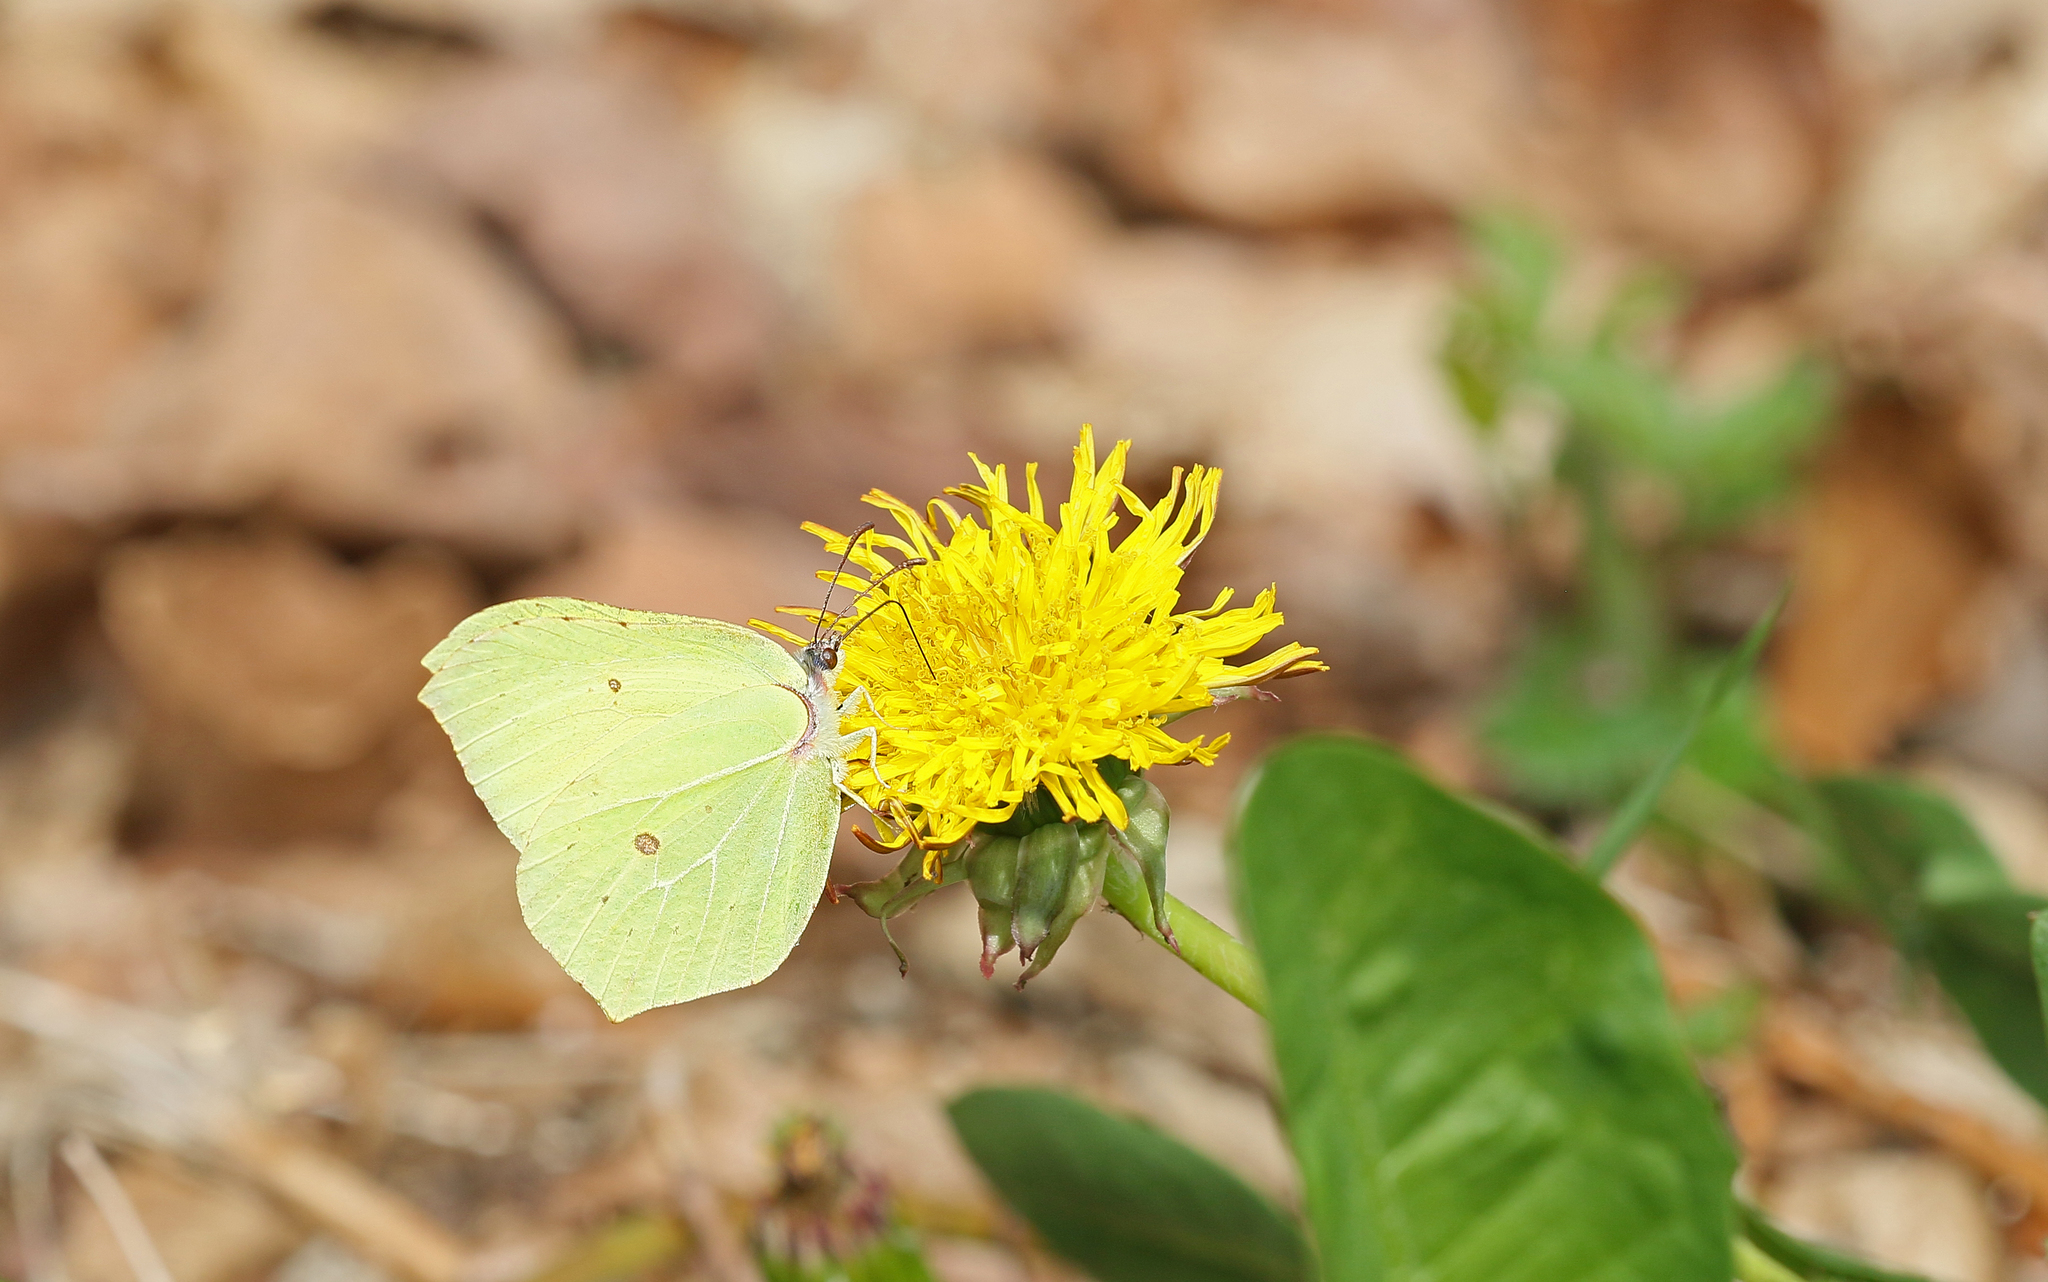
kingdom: Animalia
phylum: Arthropoda
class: Insecta
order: Lepidoptera
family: Pieridae
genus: Gonepteryx
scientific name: Gonepteryx rhamni
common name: Brimstone
